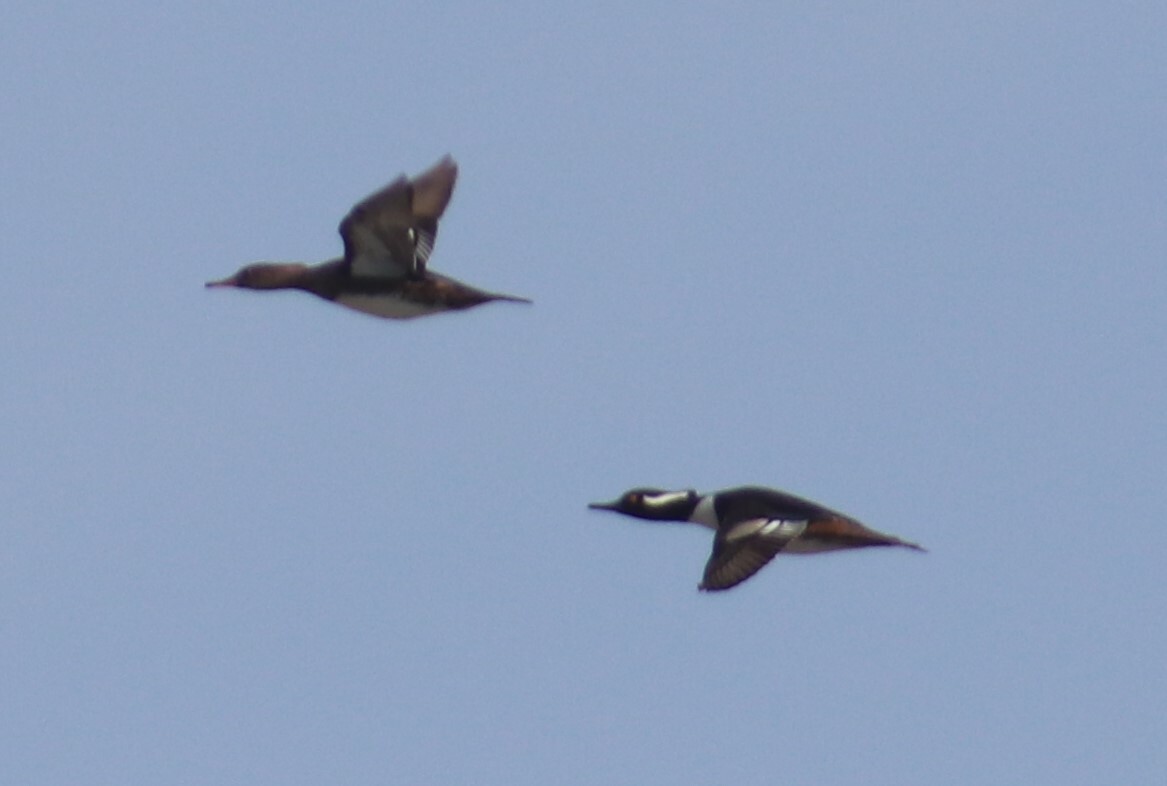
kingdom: Animalia
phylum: Chordata
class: Aves
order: Anseriformes
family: Anatidae
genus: Lophodytes
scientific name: Lophodytes cucullatus
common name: Hooded merganser
